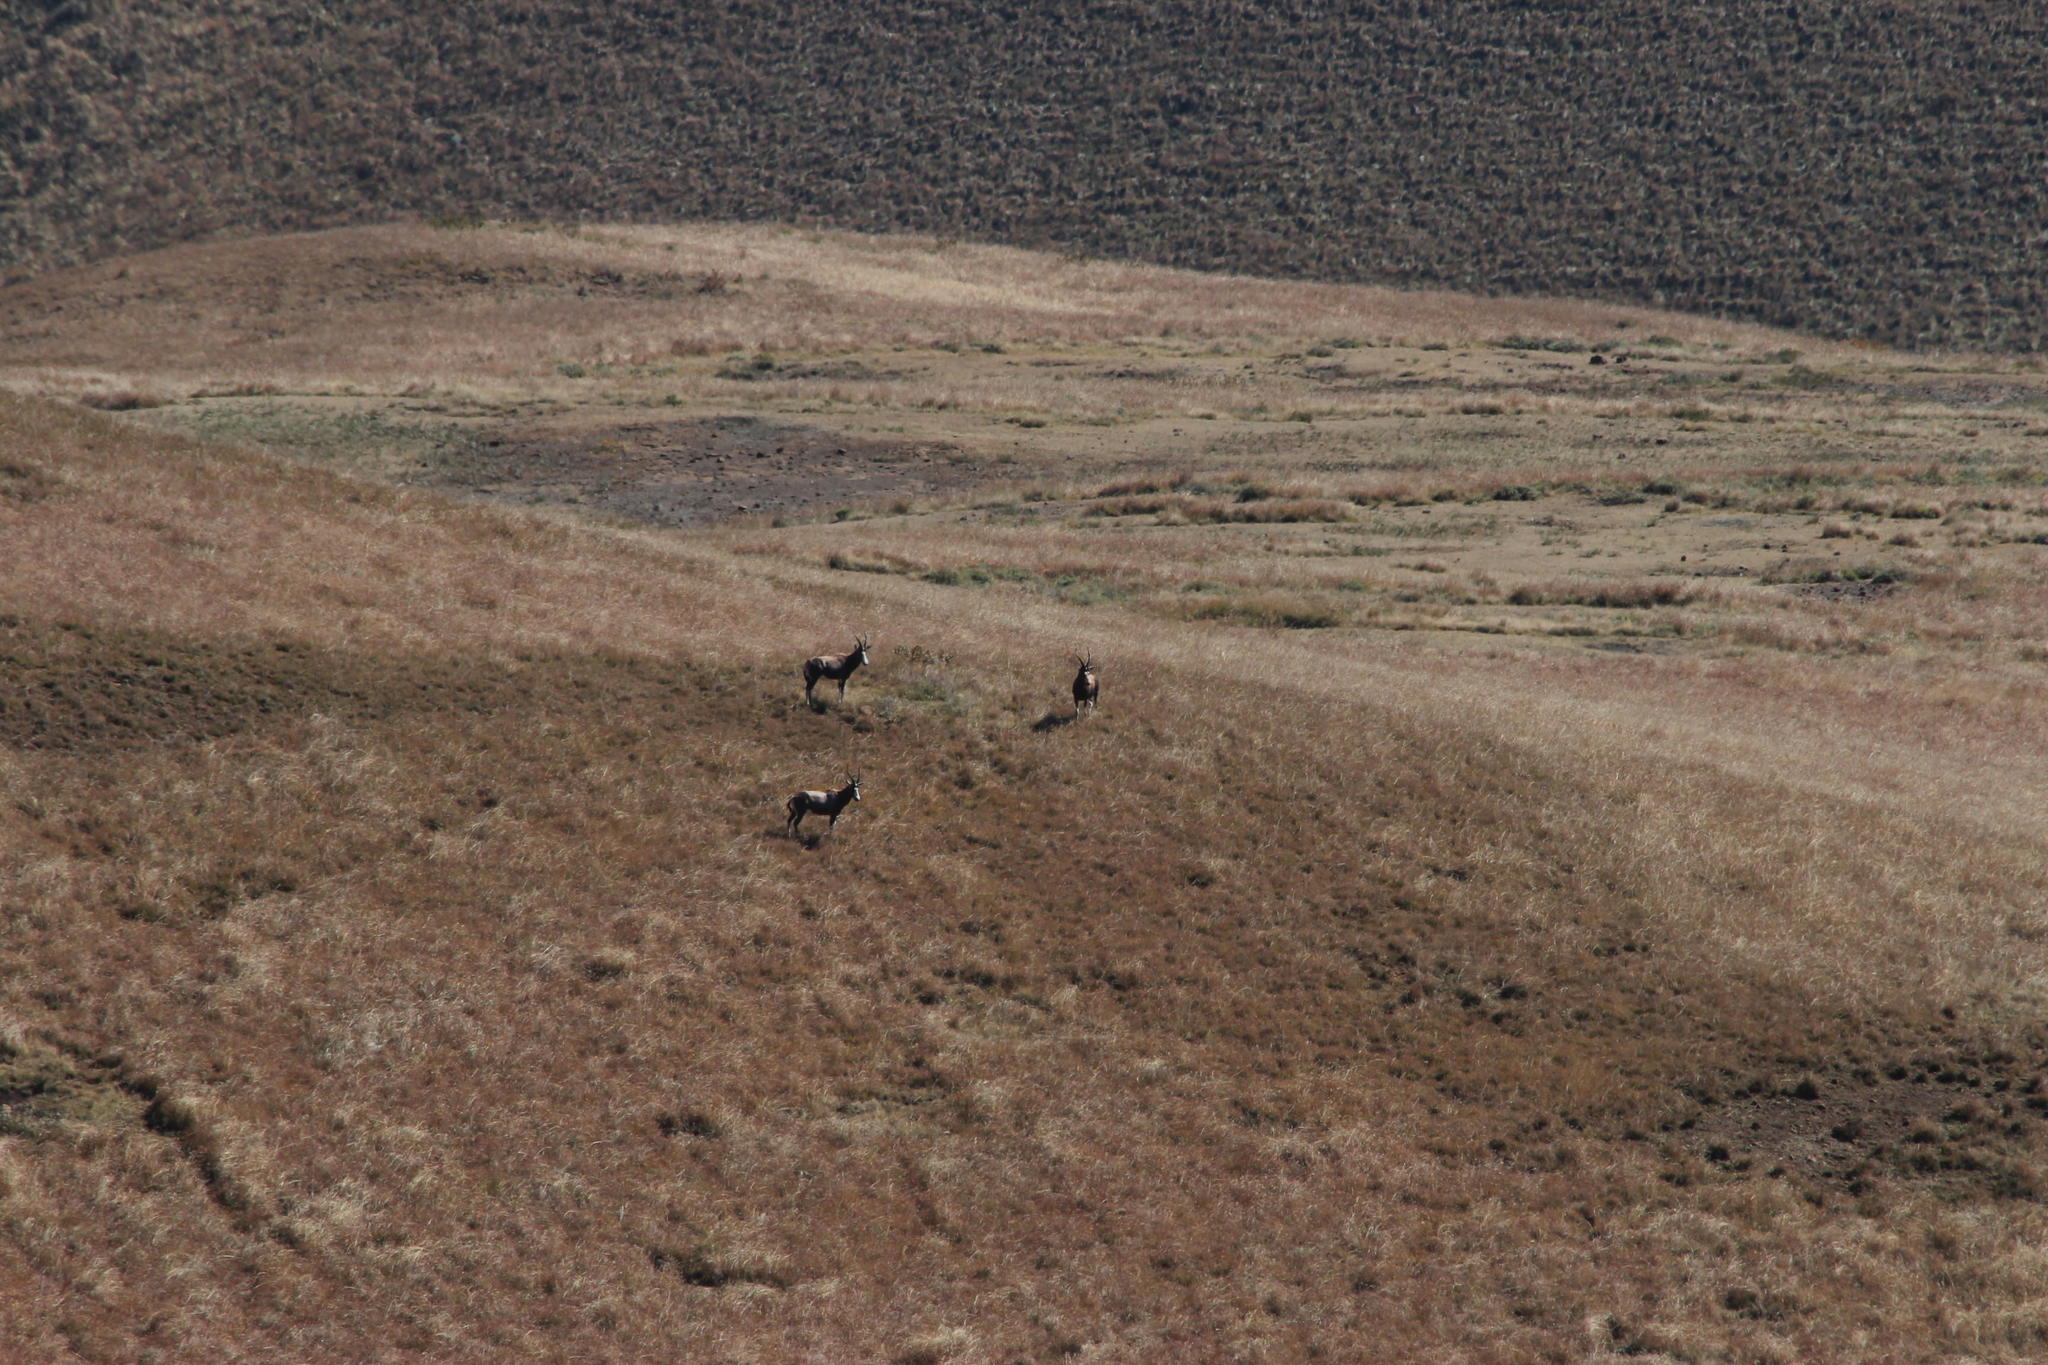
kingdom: Animalia
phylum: Chordata
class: Mammalia
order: Artiodactyla
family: Bovidae
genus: Damaliscus
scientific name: Damaliscus pygargus
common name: Bontebok
